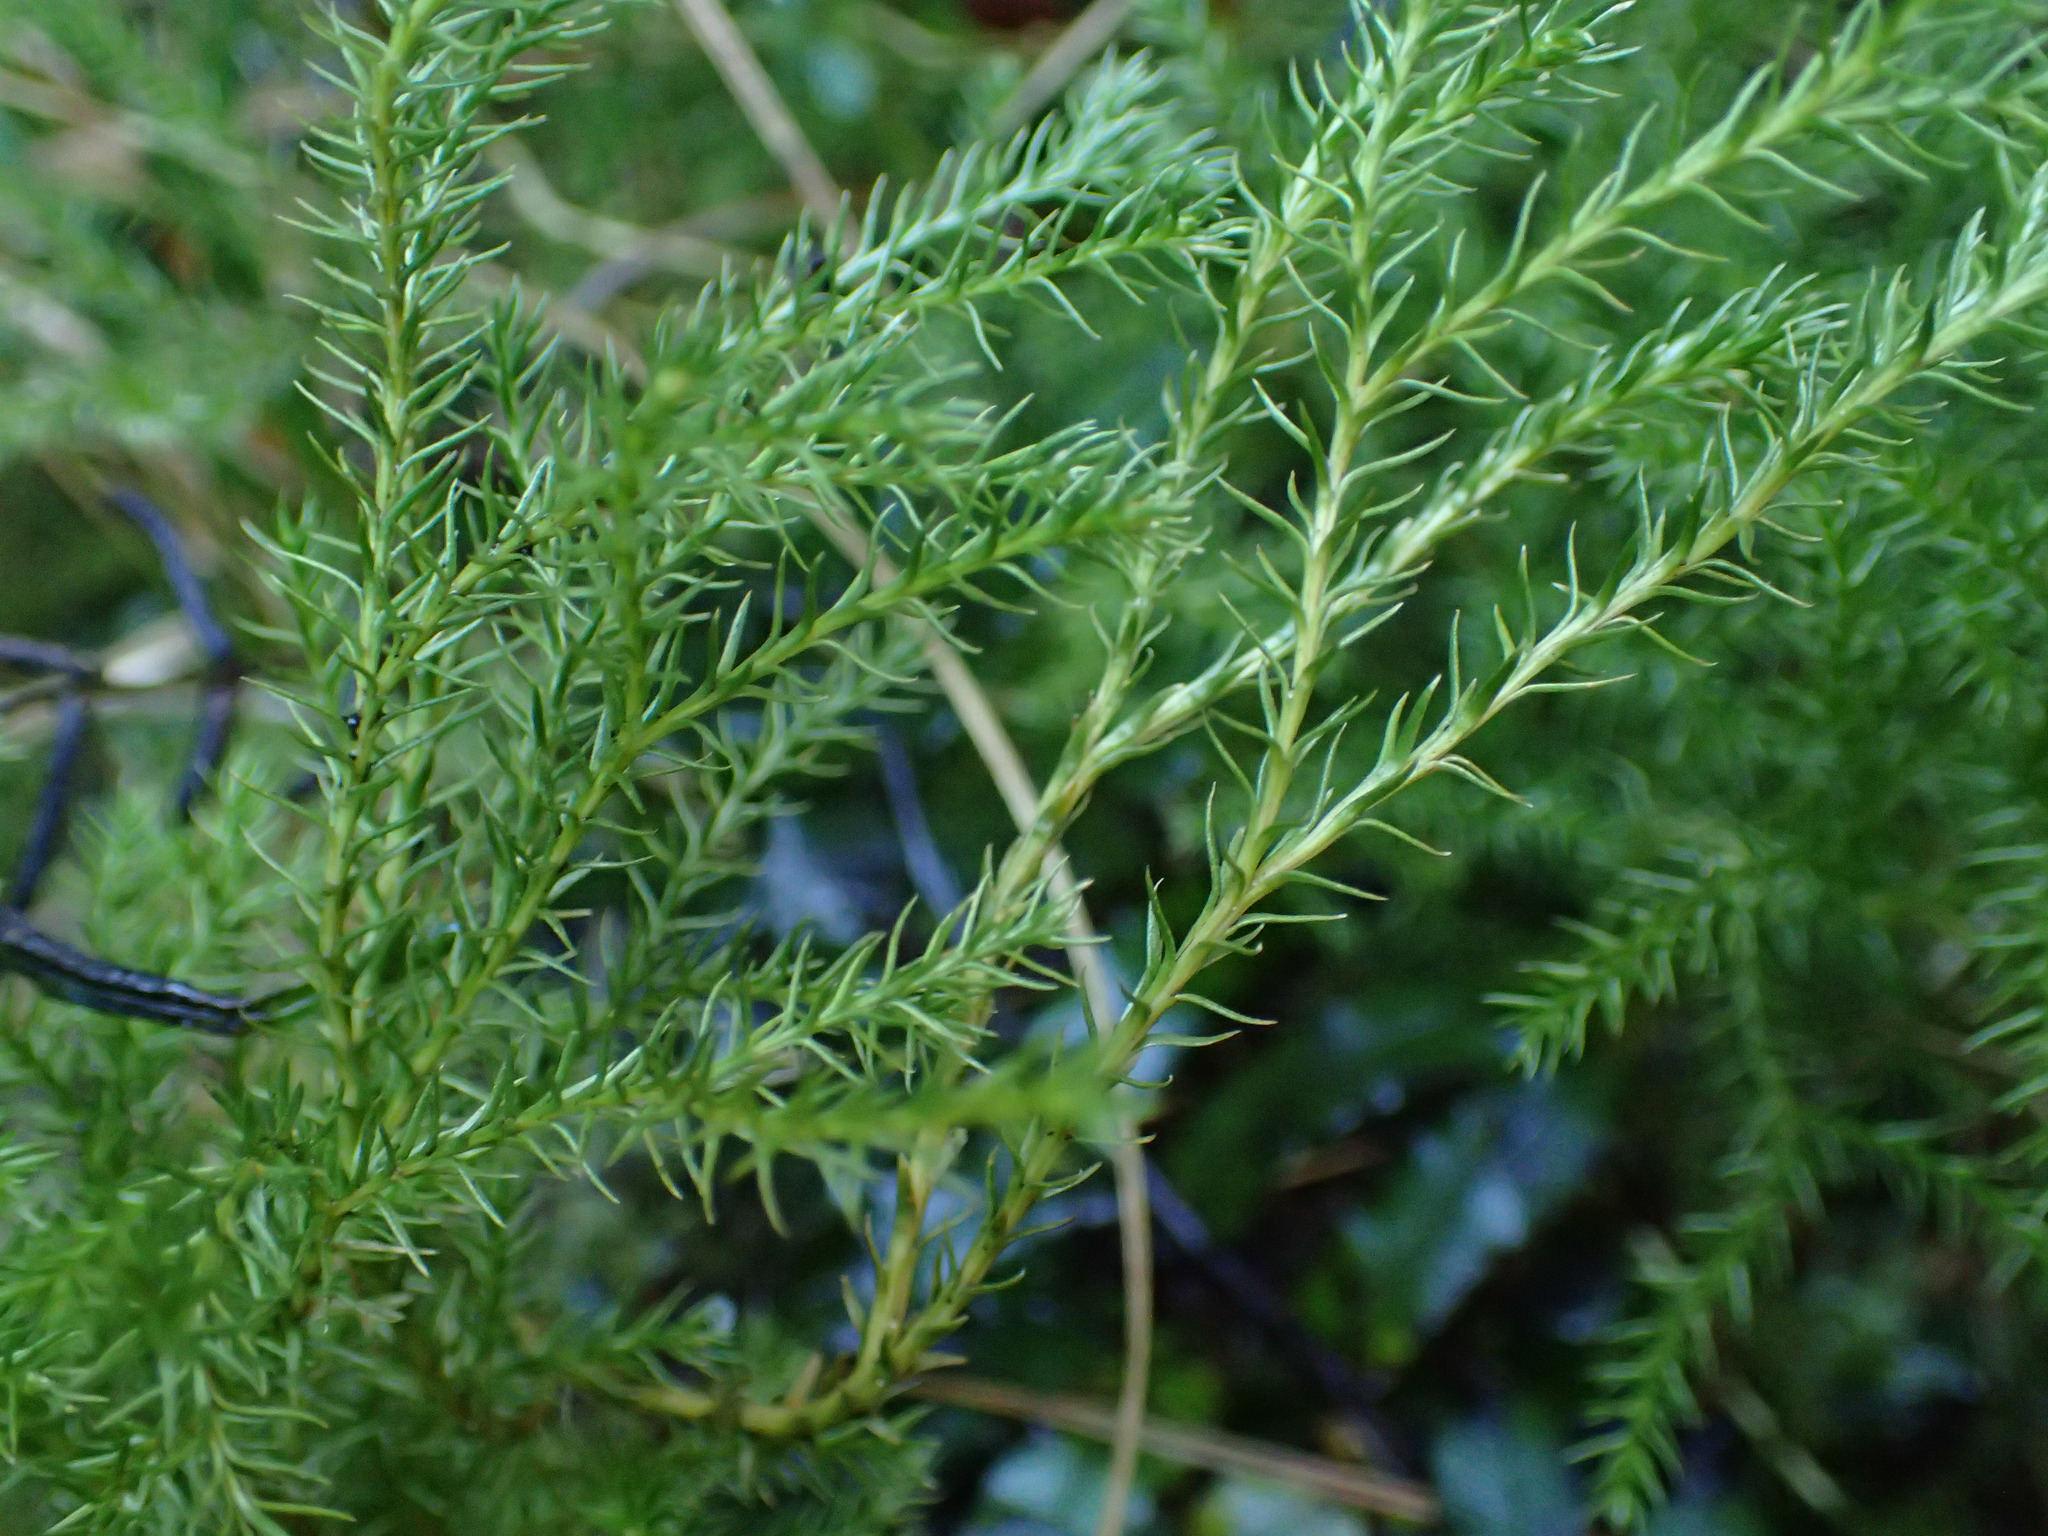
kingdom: Plantae
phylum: Tracheophyta
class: Lycopodiopsida
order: Lycopodiales
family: Lycopodiaceae
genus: Austrolycopodium
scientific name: Austrolycopodium fastigiatum
